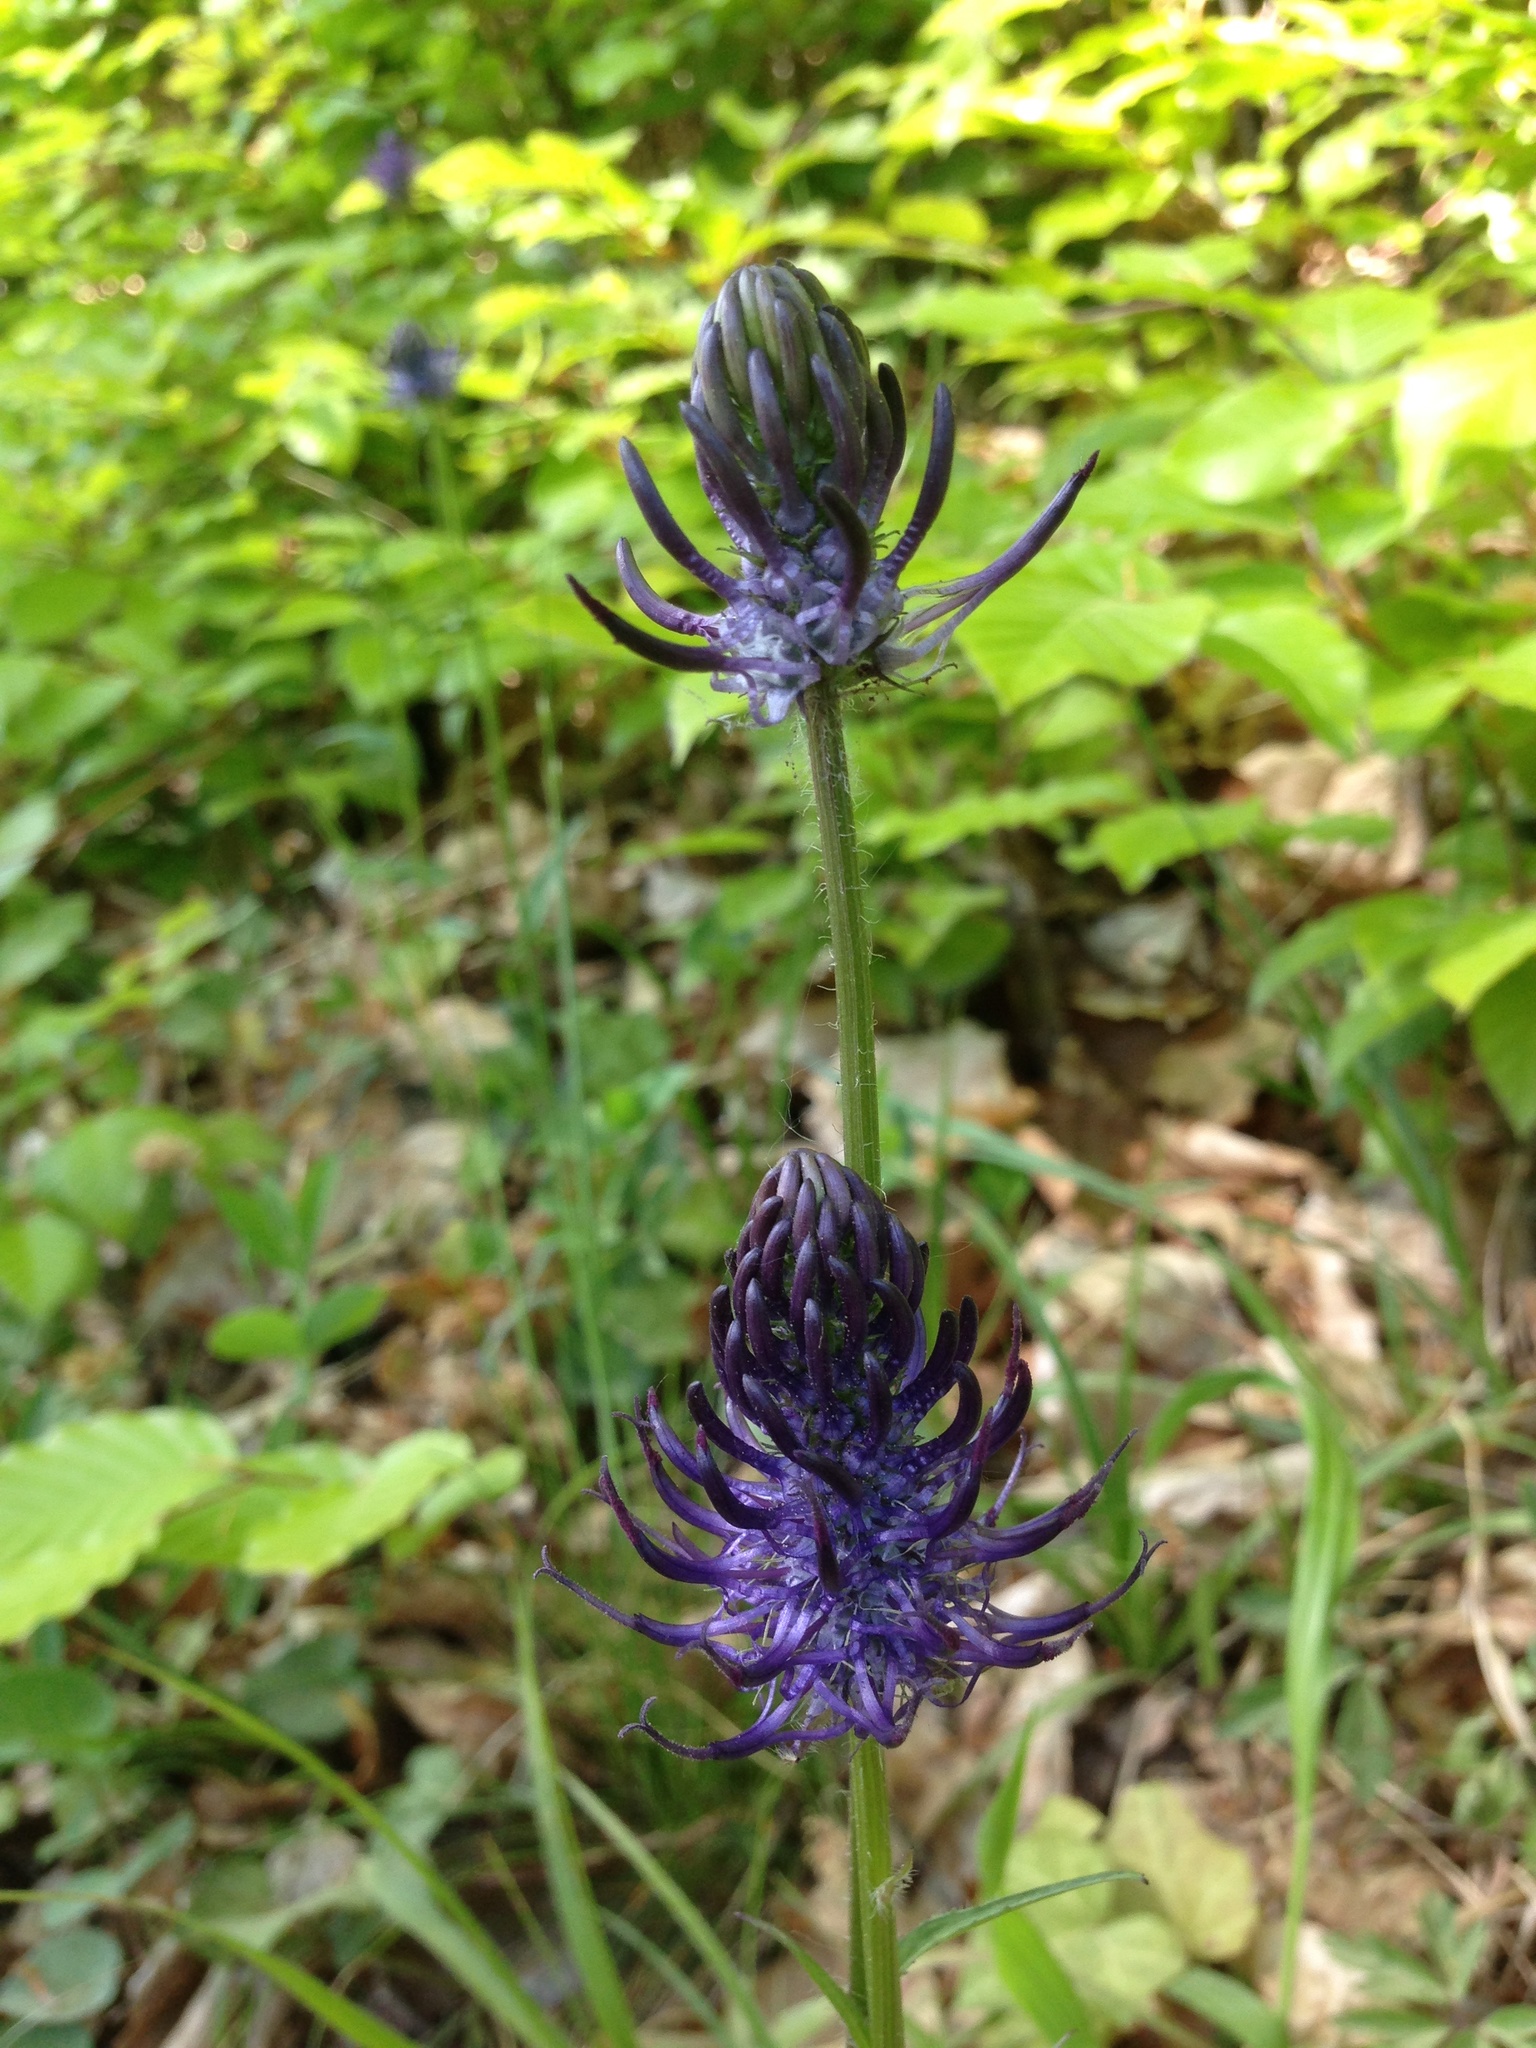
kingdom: Plantae
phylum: Tracheophyta
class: Magnoliopsida
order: Asterales
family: Campanulaceae
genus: Phyteuma
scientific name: Phyteuma nigrum
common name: Black rampion
